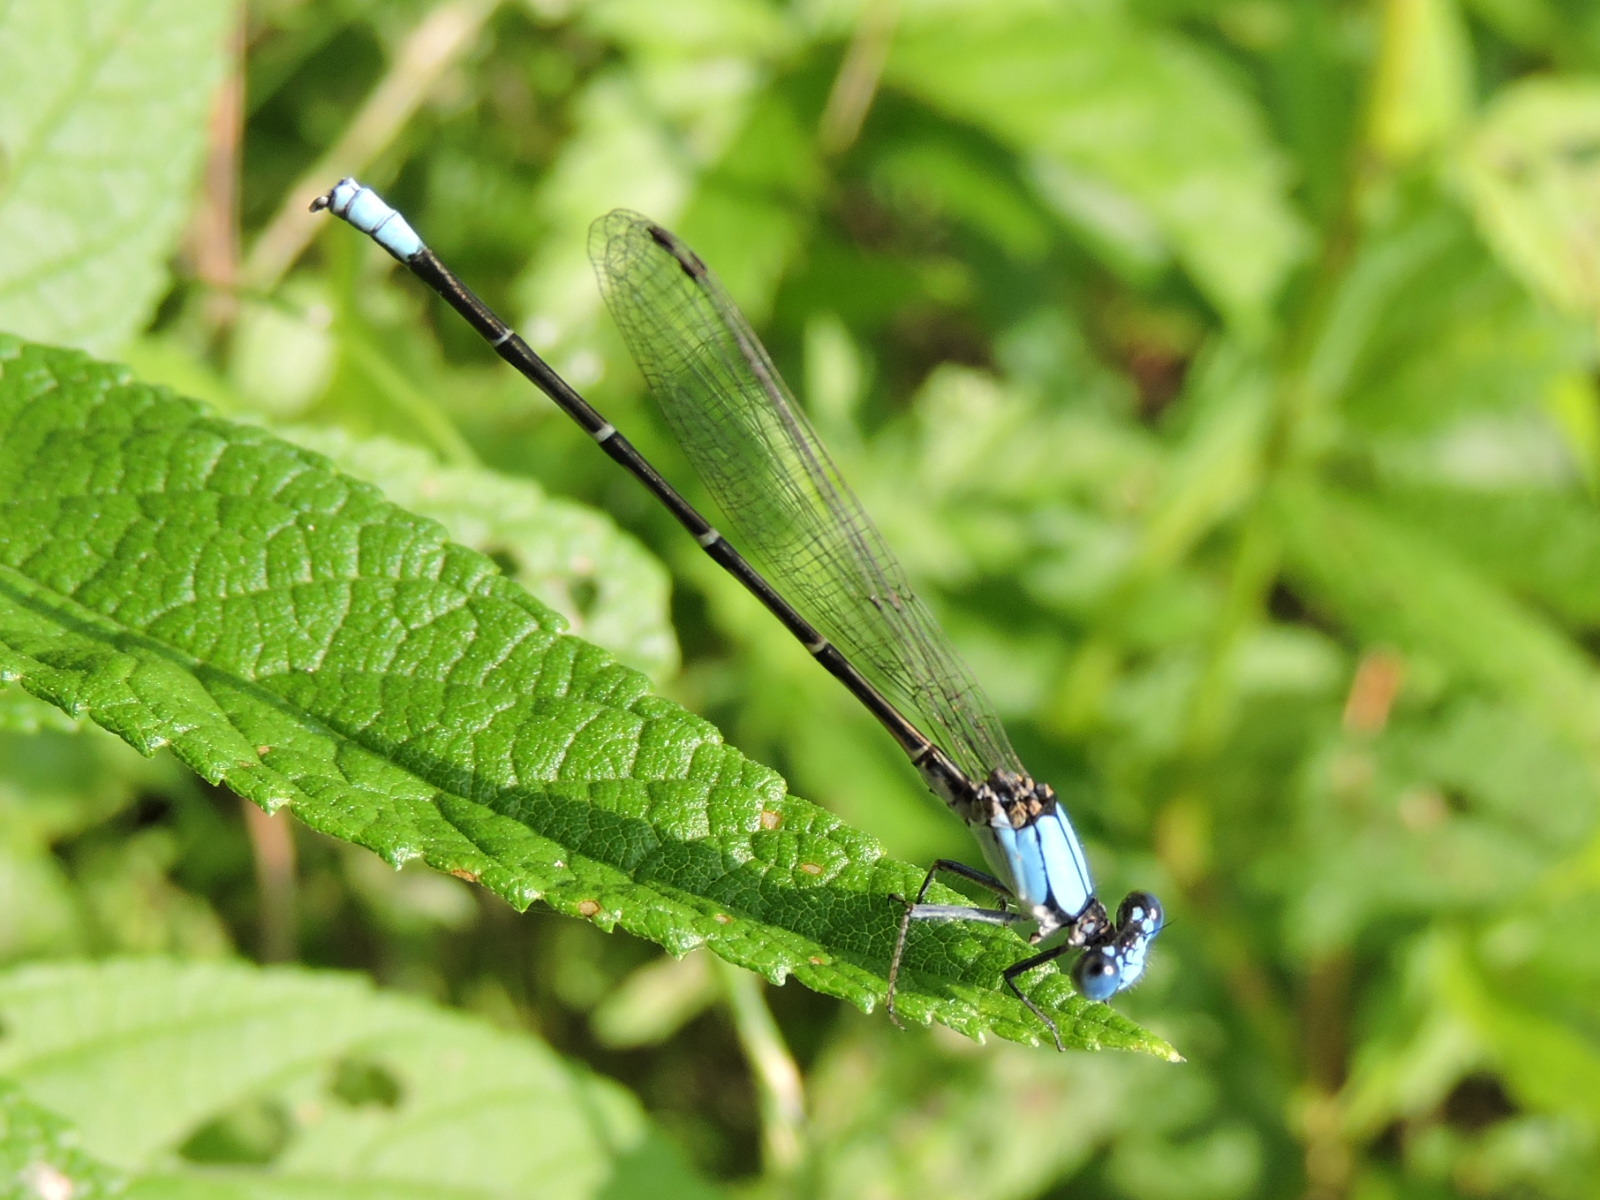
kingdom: Animalia
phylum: Arthropoda
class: Insecta
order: Odonata
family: Coenagrionidae
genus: Argia
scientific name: Argia apicalis
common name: Blue-fronted dancer
